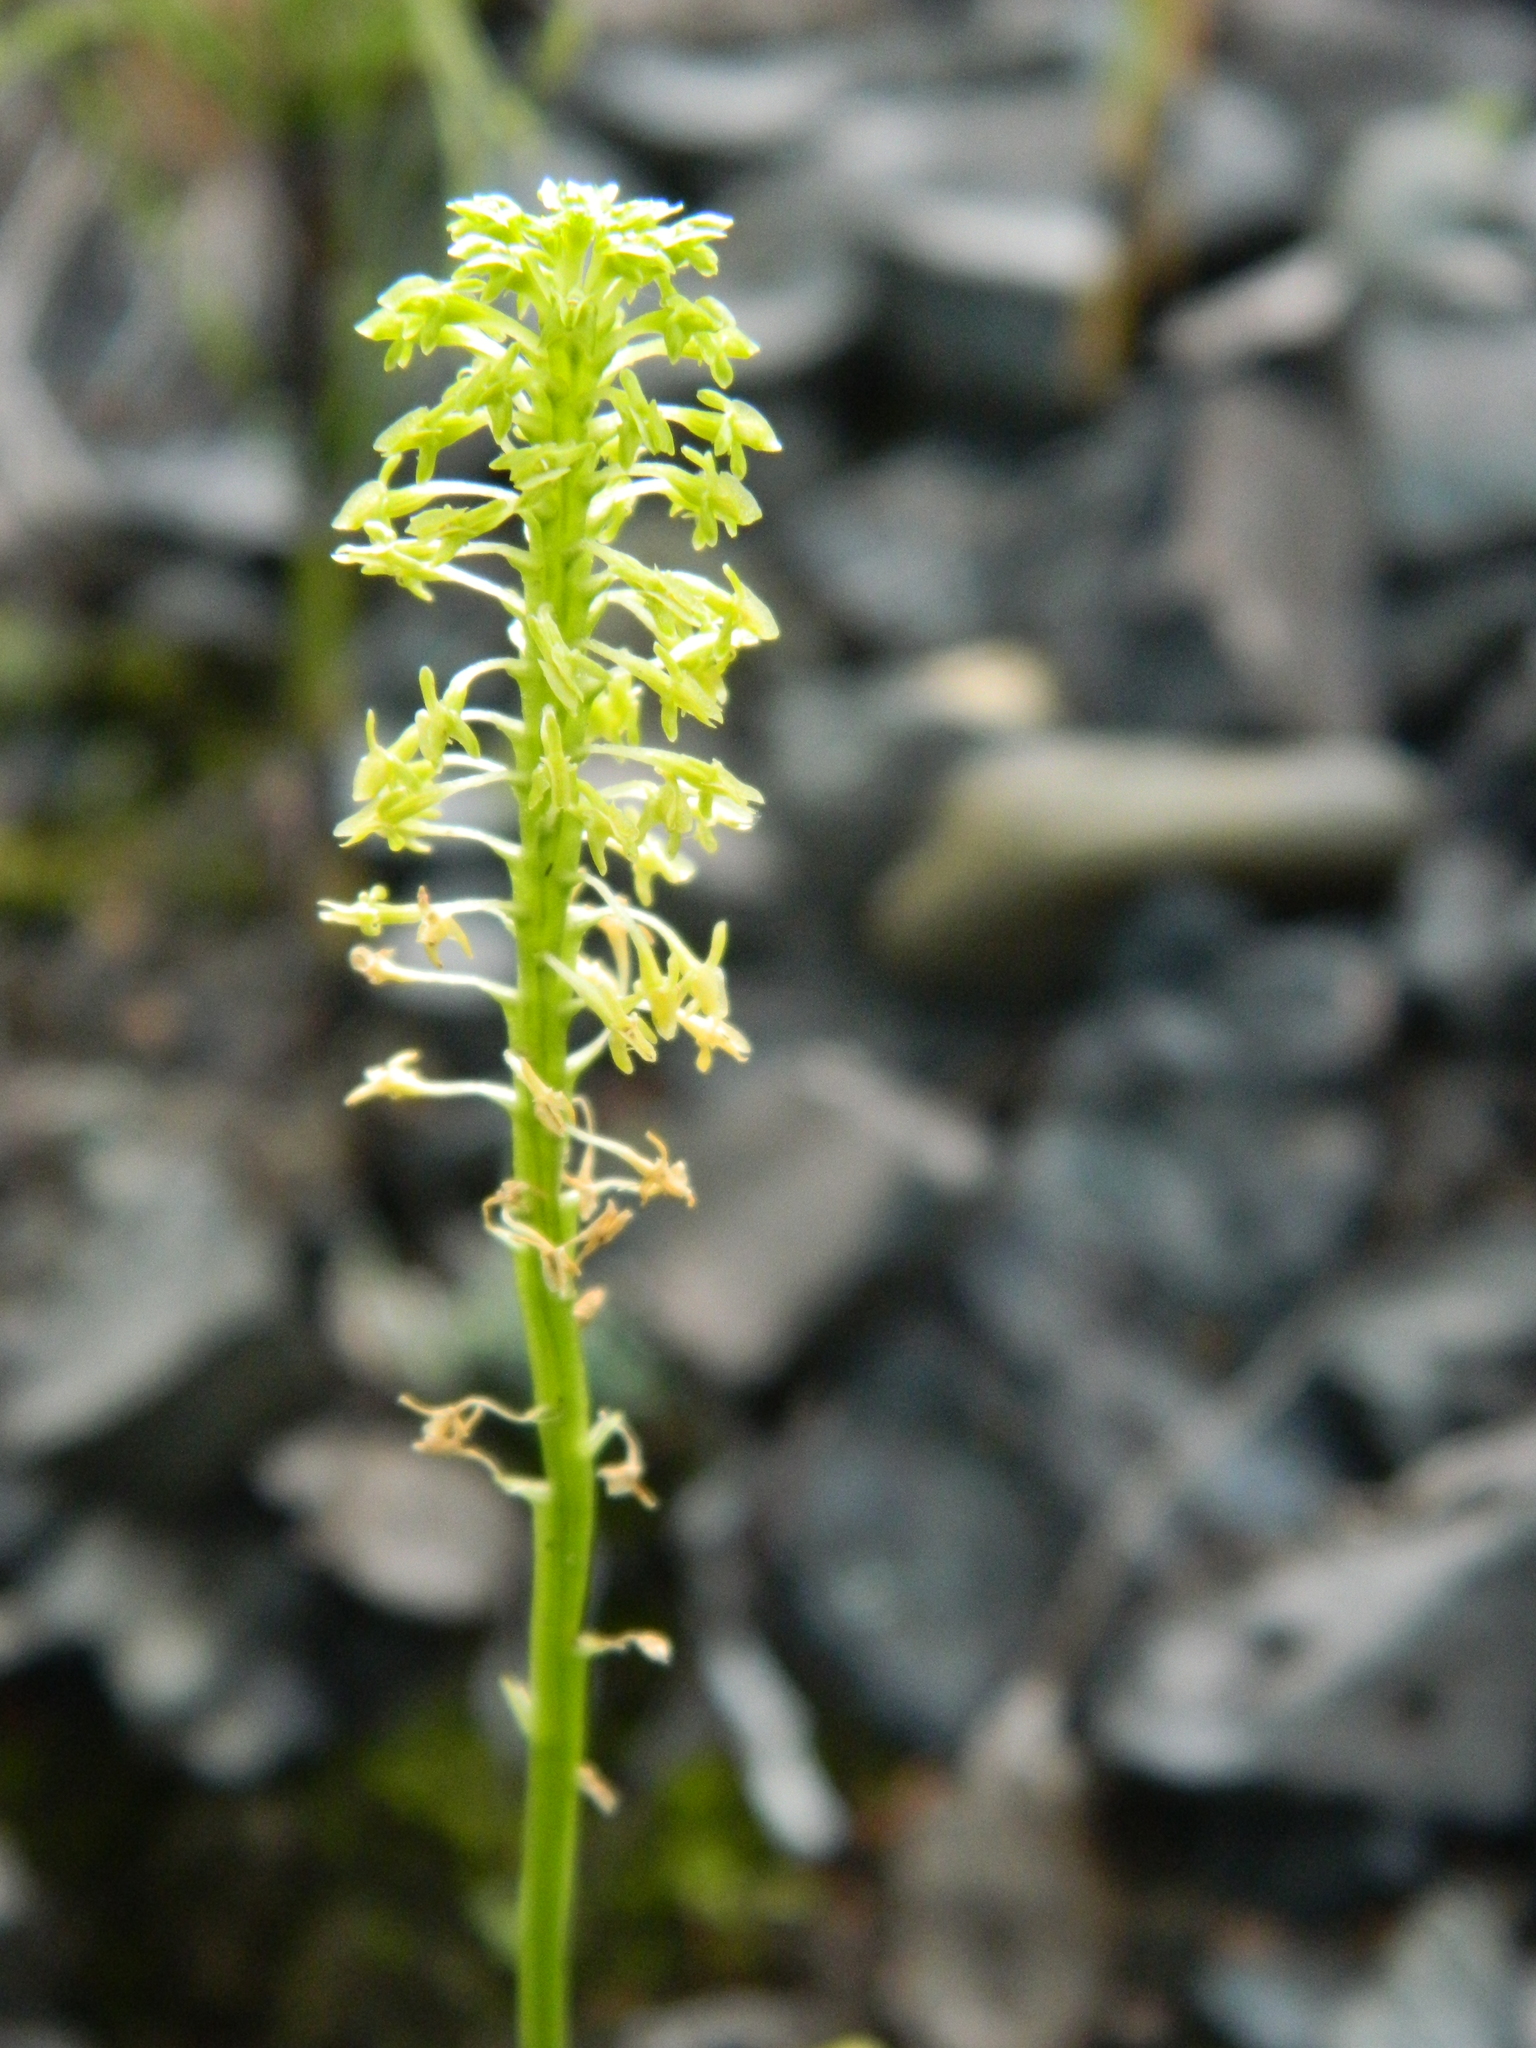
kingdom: Plantae
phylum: Tracheophyta
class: Liliopsida
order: Asparagales
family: Orchidaceae
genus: Malaxis
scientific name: Malaxis unifolia
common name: Green adder's-mouth
